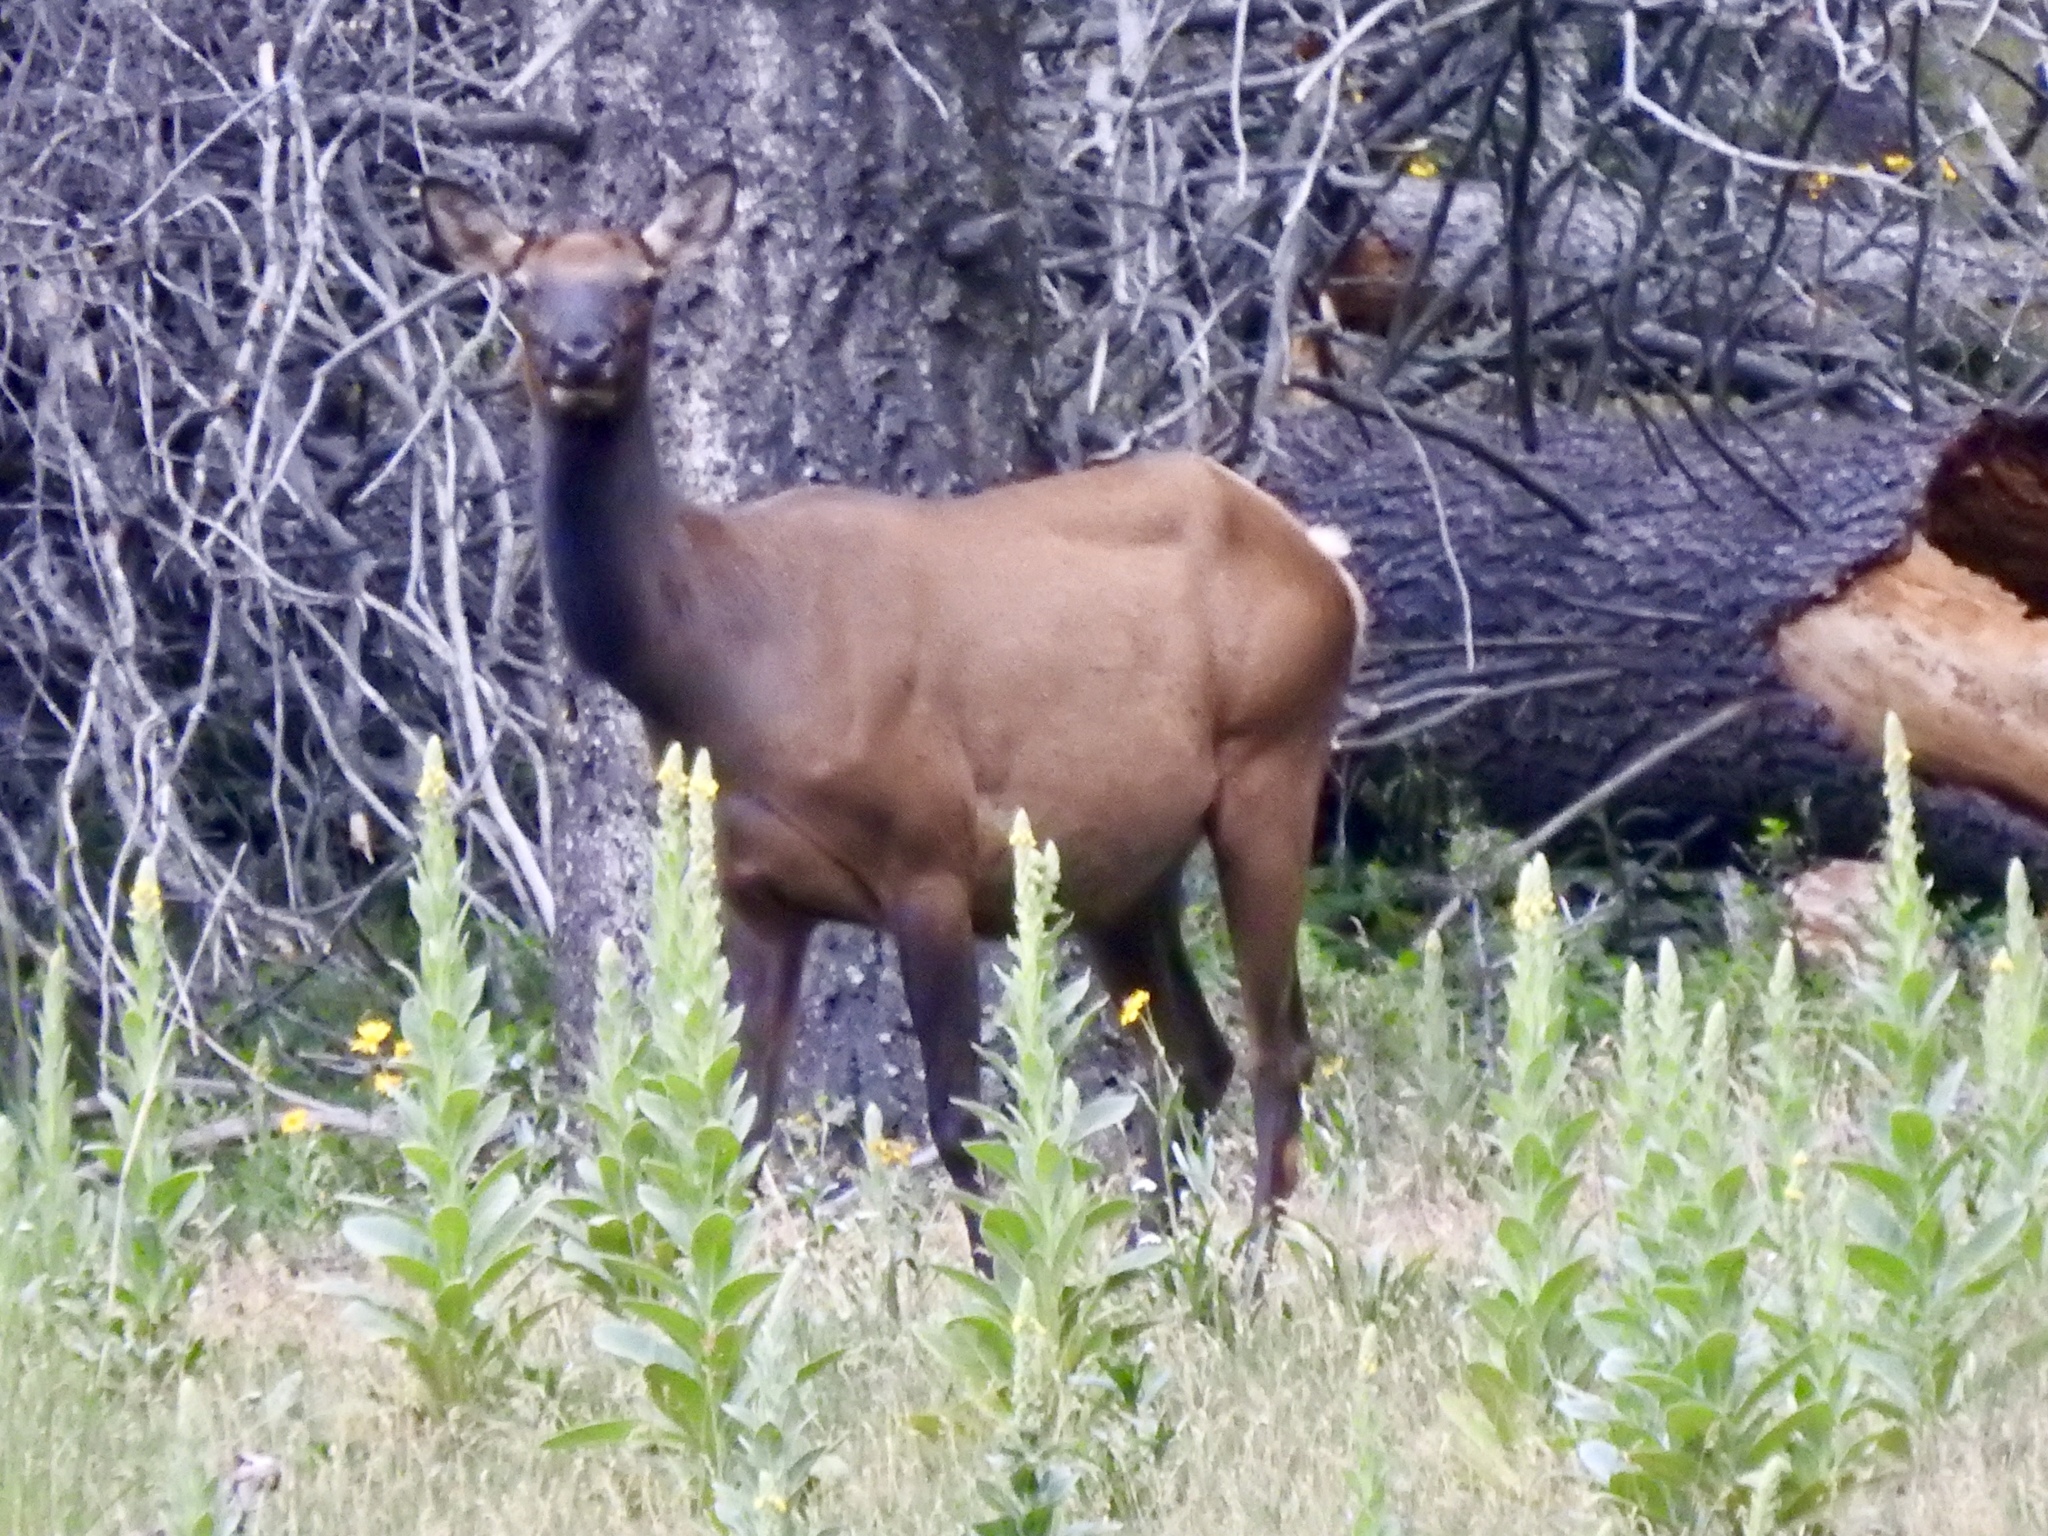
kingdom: Animalia
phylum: Chordata
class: Mammalia
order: Artiodactyla
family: Cervidae
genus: Cervus
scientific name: Cervus elaphus
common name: Red deer
